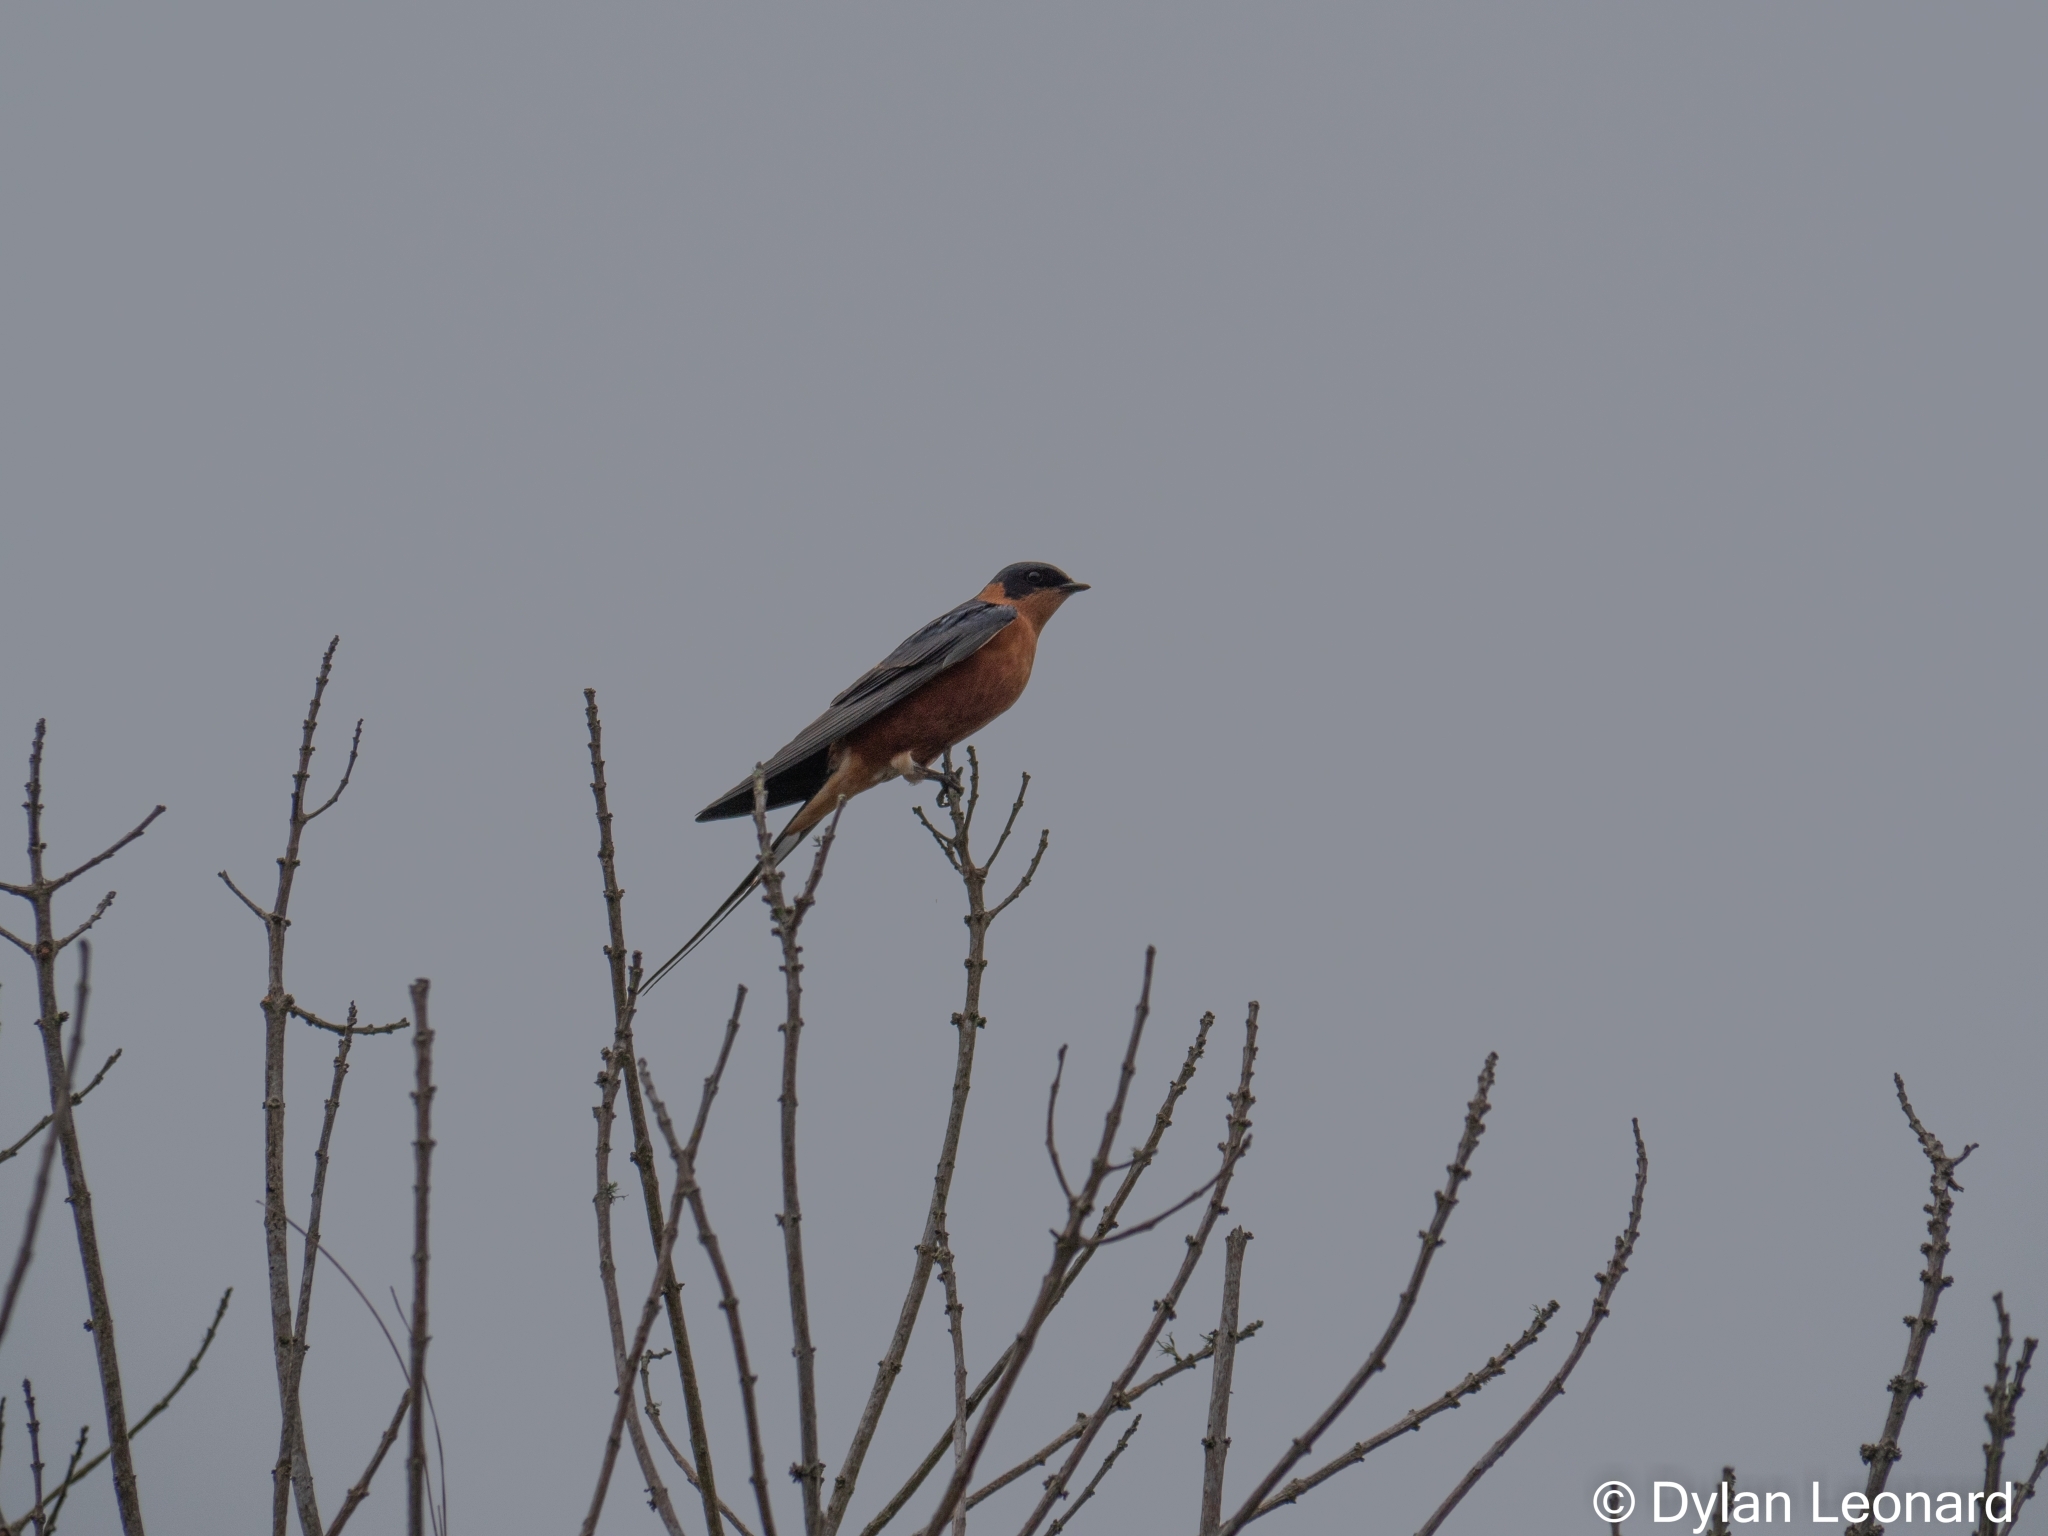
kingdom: Animalia
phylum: Chordata
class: Aves
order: Passeriformes
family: Hirundinidae
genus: Cecropis
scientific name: Cecropis semirufa
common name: Red-breasted swallow
